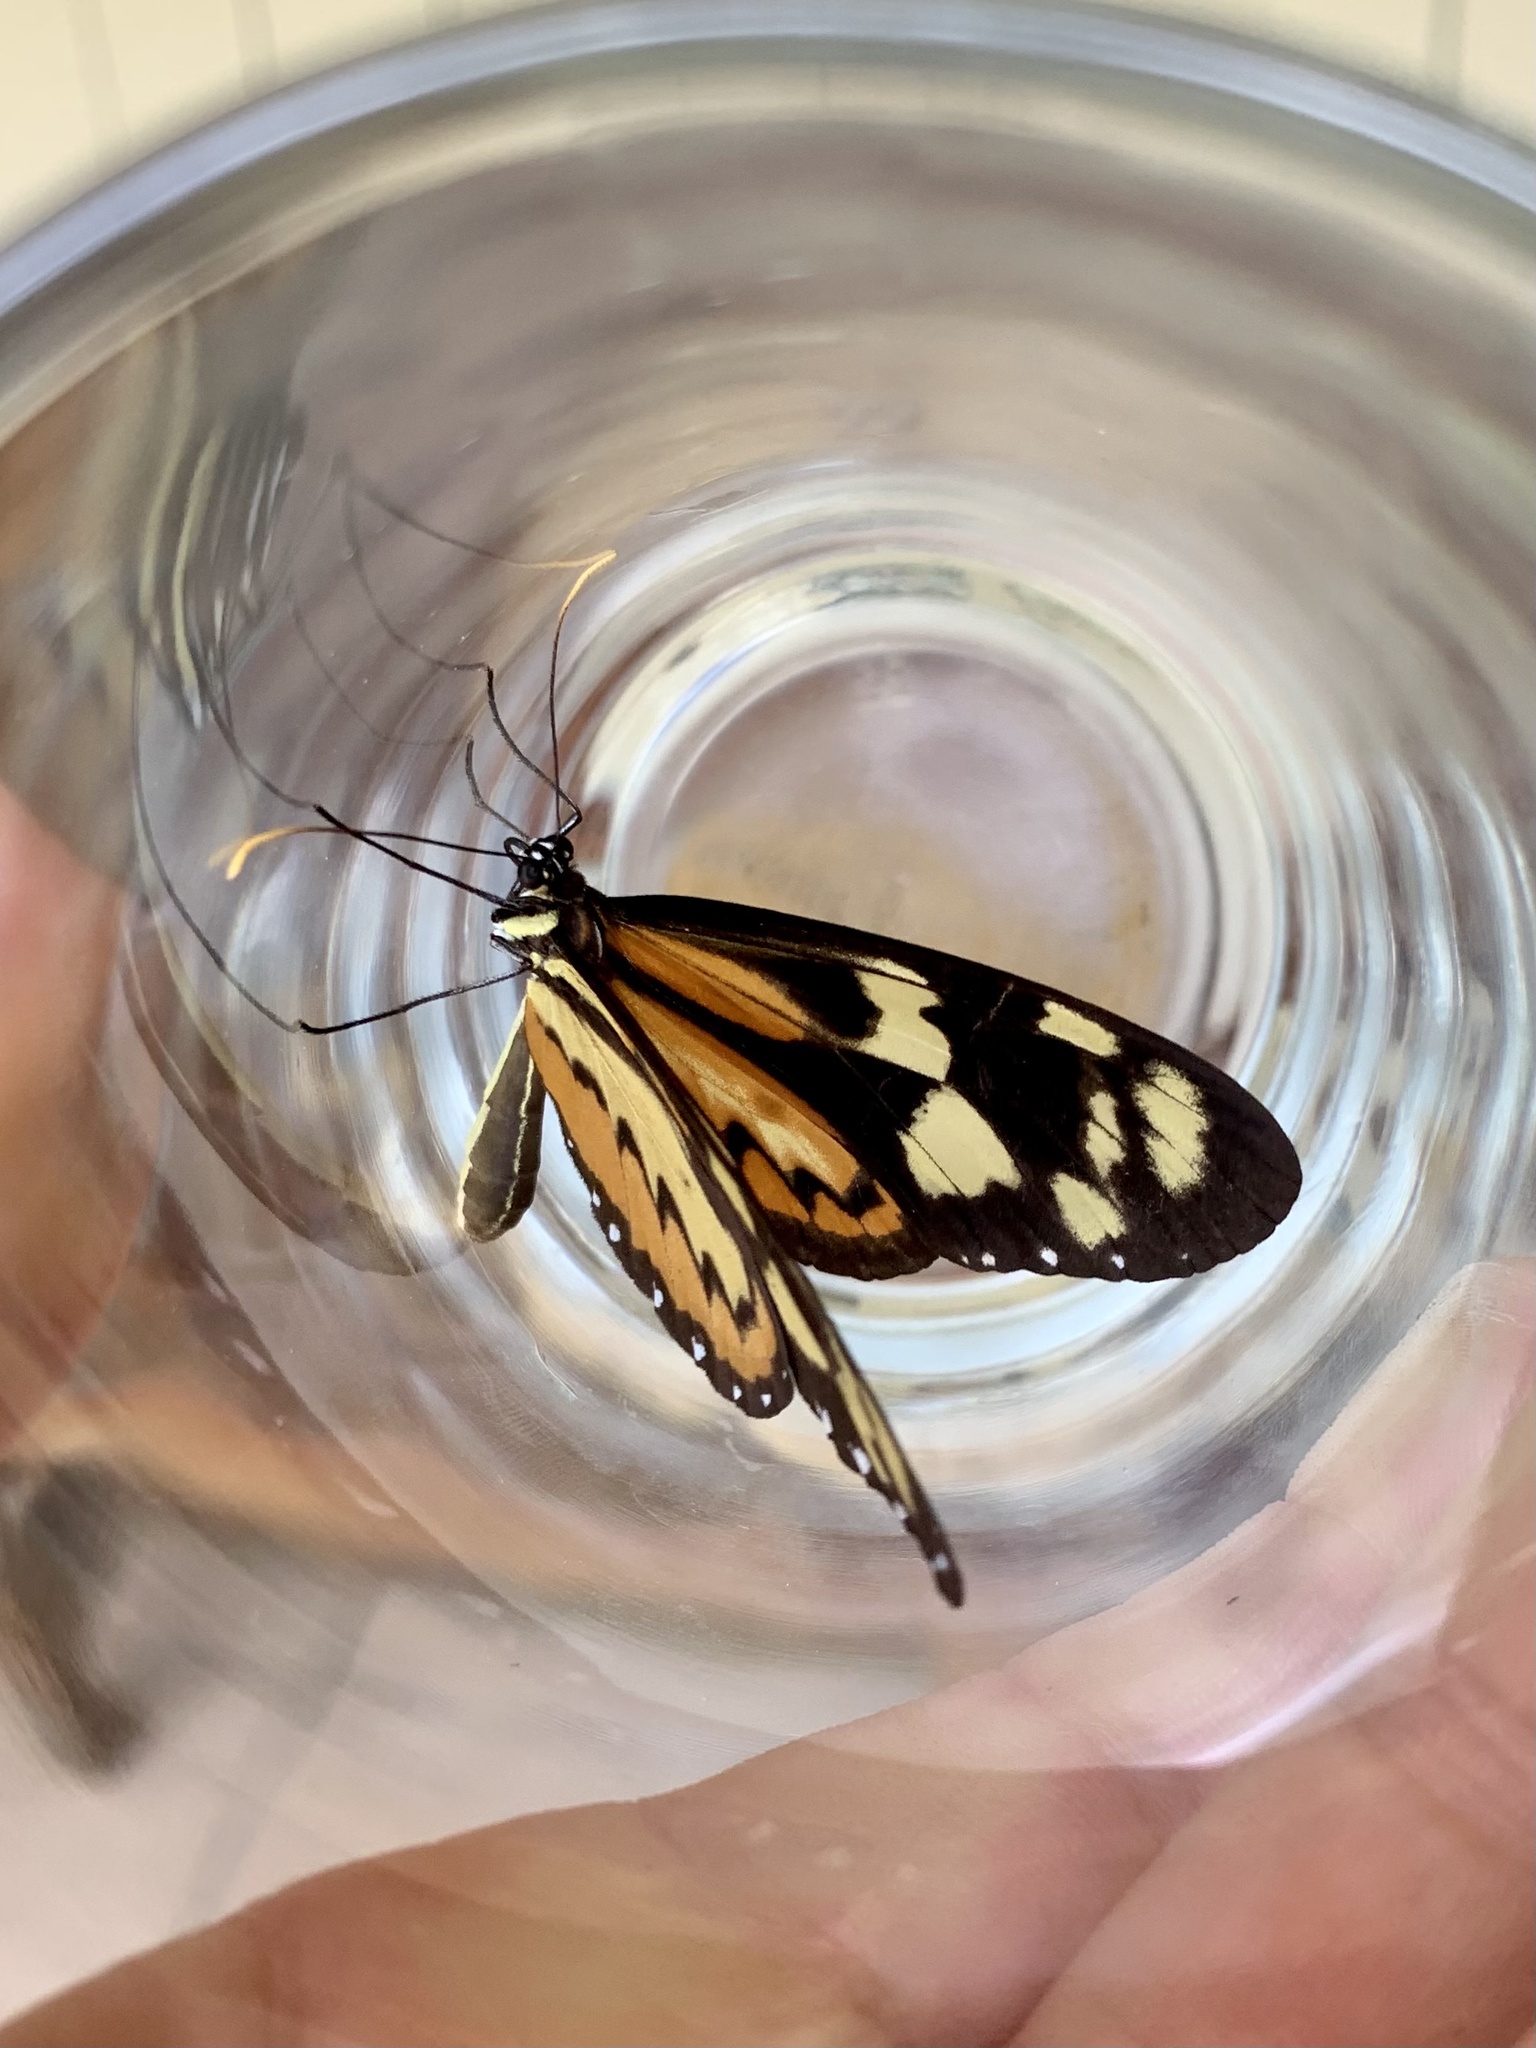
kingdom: Animalia
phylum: Arthropoda
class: Insecta
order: Lepidoptera
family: Nymphalidae
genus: Mechanitis
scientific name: Mechanitis lysimnia
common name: Lysimnia tigerwing
